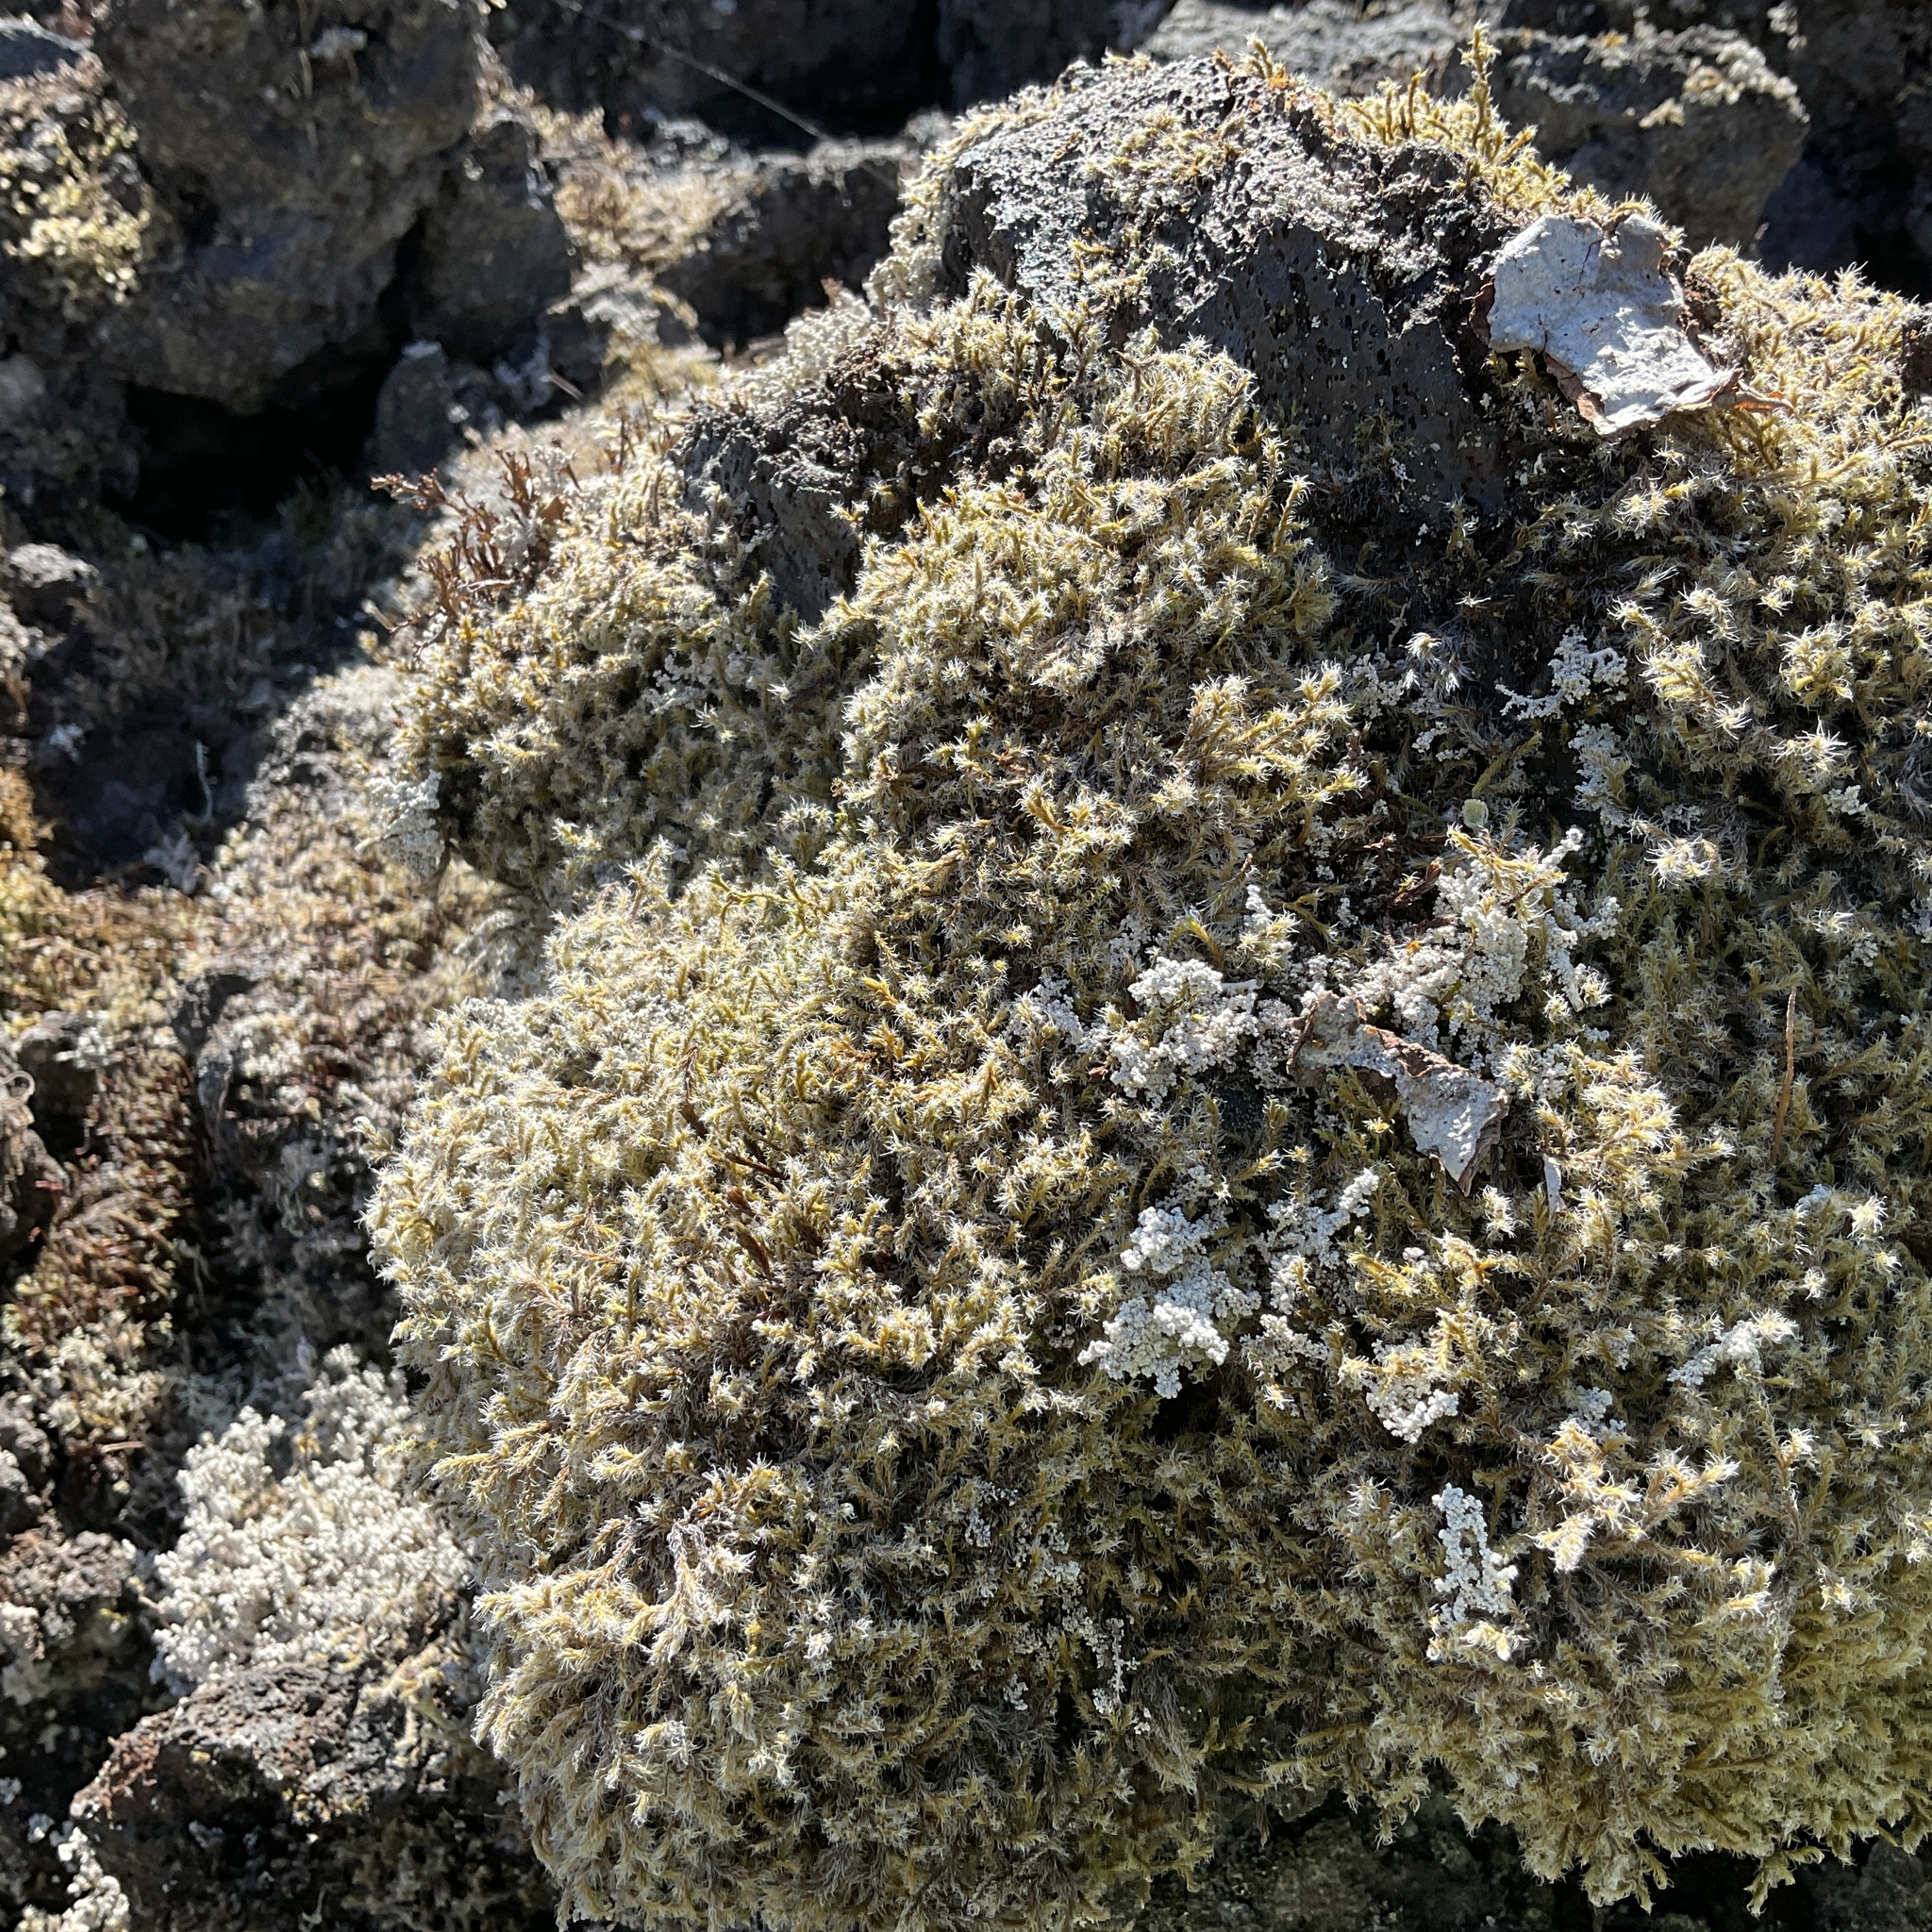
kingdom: Plantae
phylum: Bryophyta
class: Bryopsida
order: Grimmiales
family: Grimmiaceae
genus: Racomitrium
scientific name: Racomitrium lanuginosum
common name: Hoary rock moss
